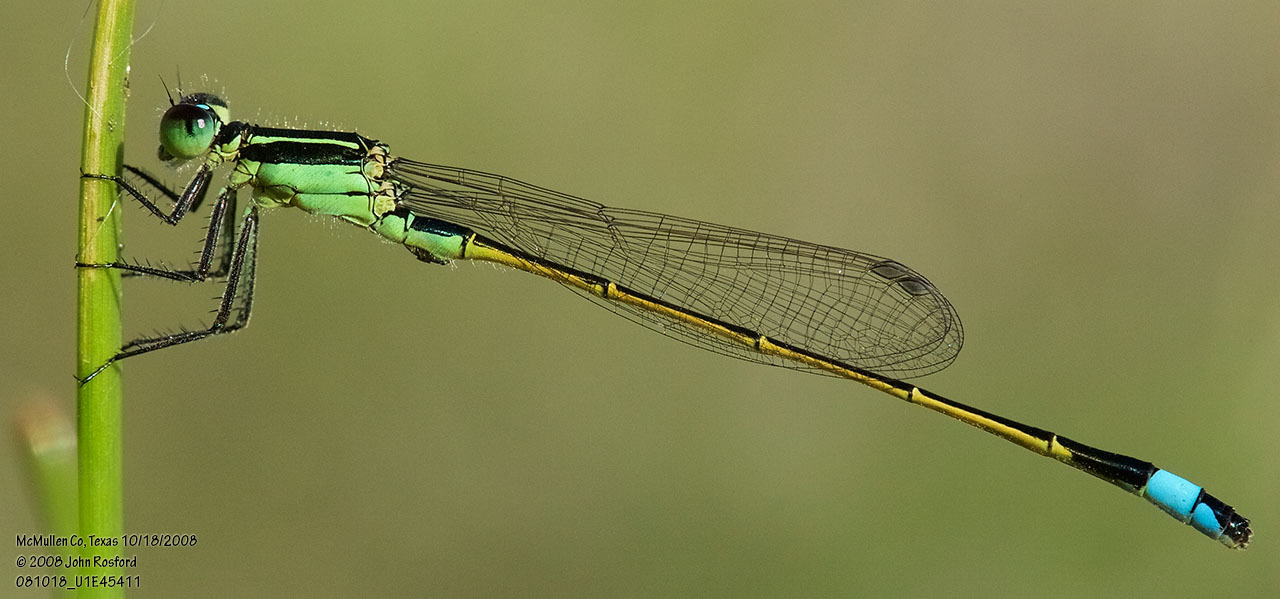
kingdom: Animalia
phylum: Arthropoda
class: Insecta
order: Odonata
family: Coenagrionidae
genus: Ischnura
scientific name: Ischnura ramburii
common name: Rambur's forktail
